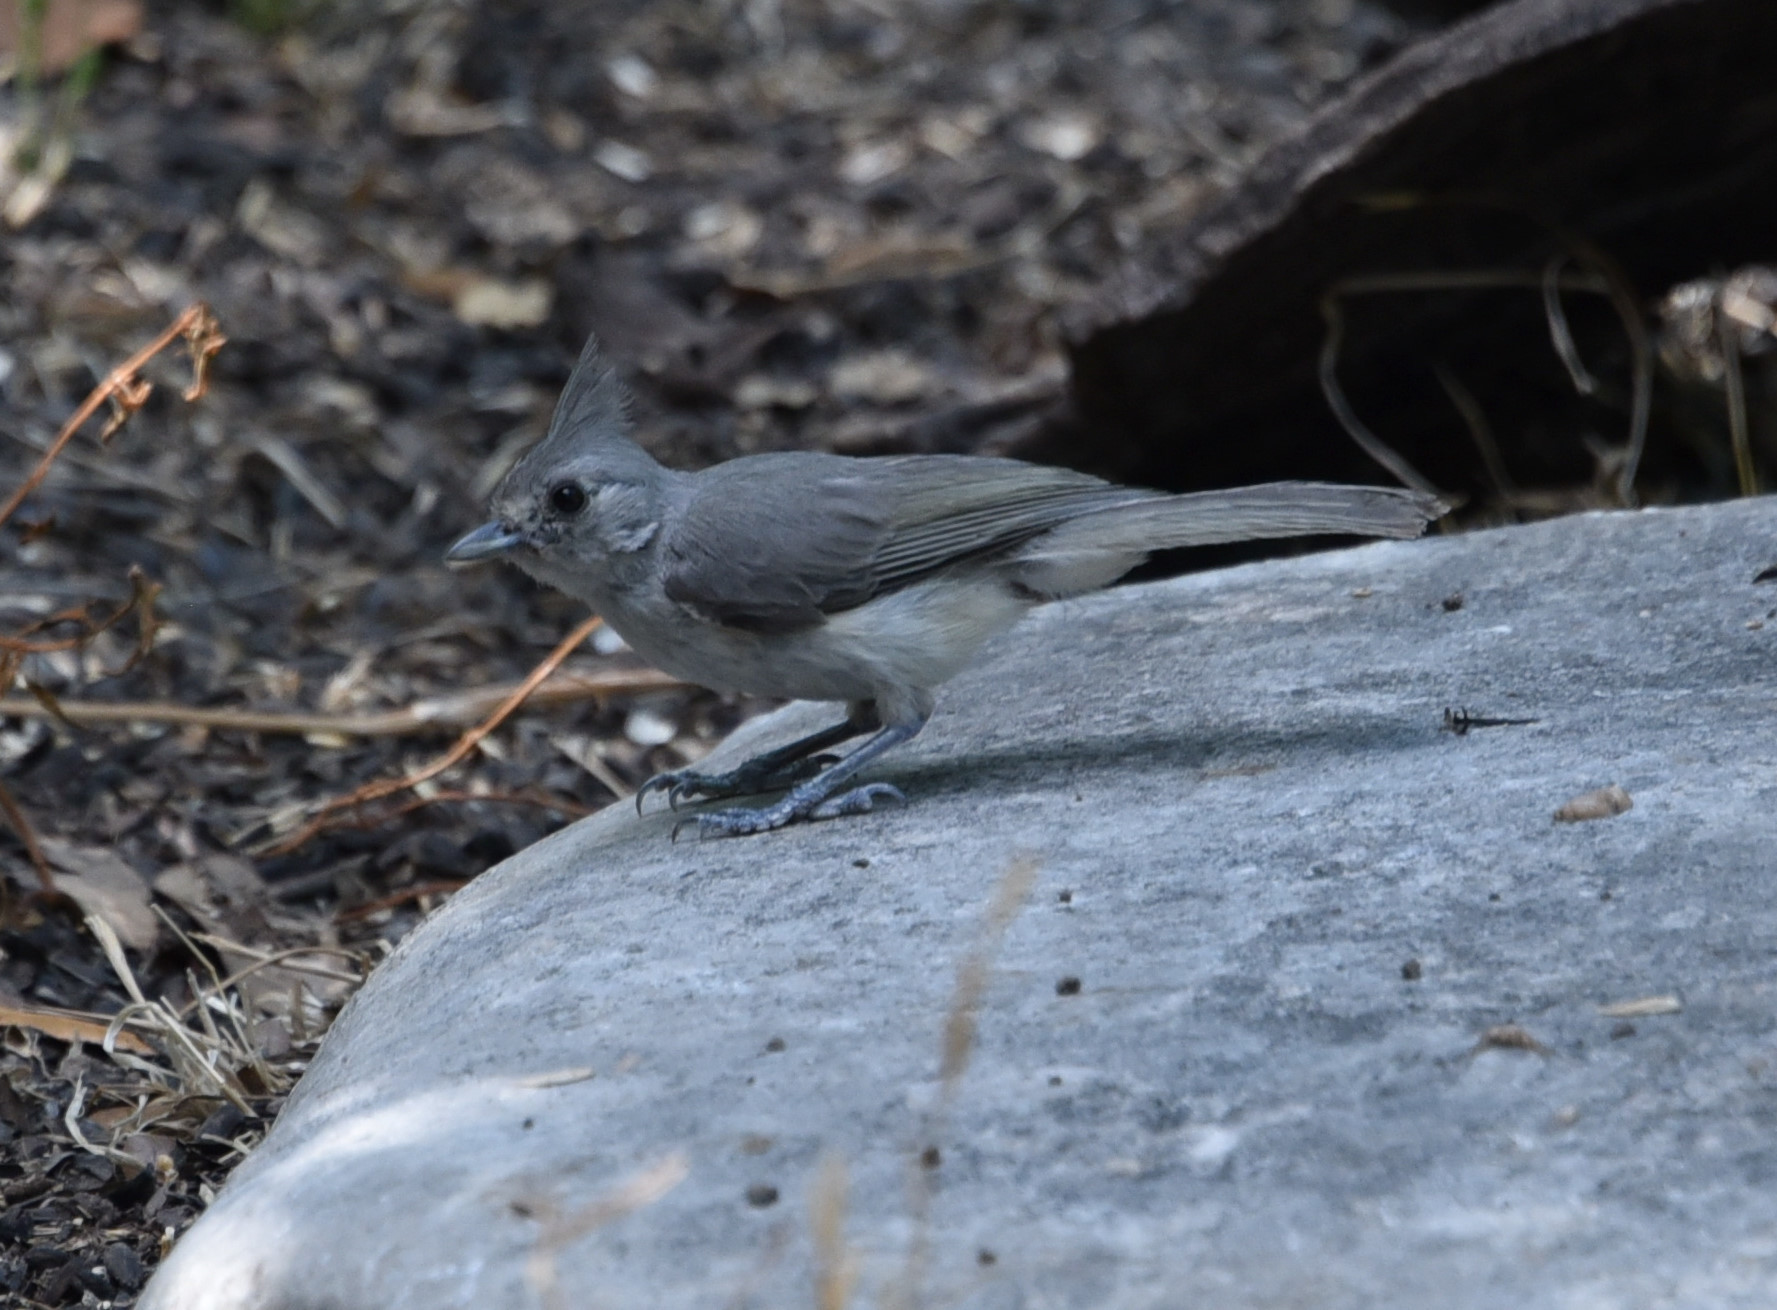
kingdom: Animalia
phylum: Chordata
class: Aves
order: Passeriformes
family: Paridae
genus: Baeolophus
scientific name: Baeolophus atricristatus
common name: Black-crested titmouse
